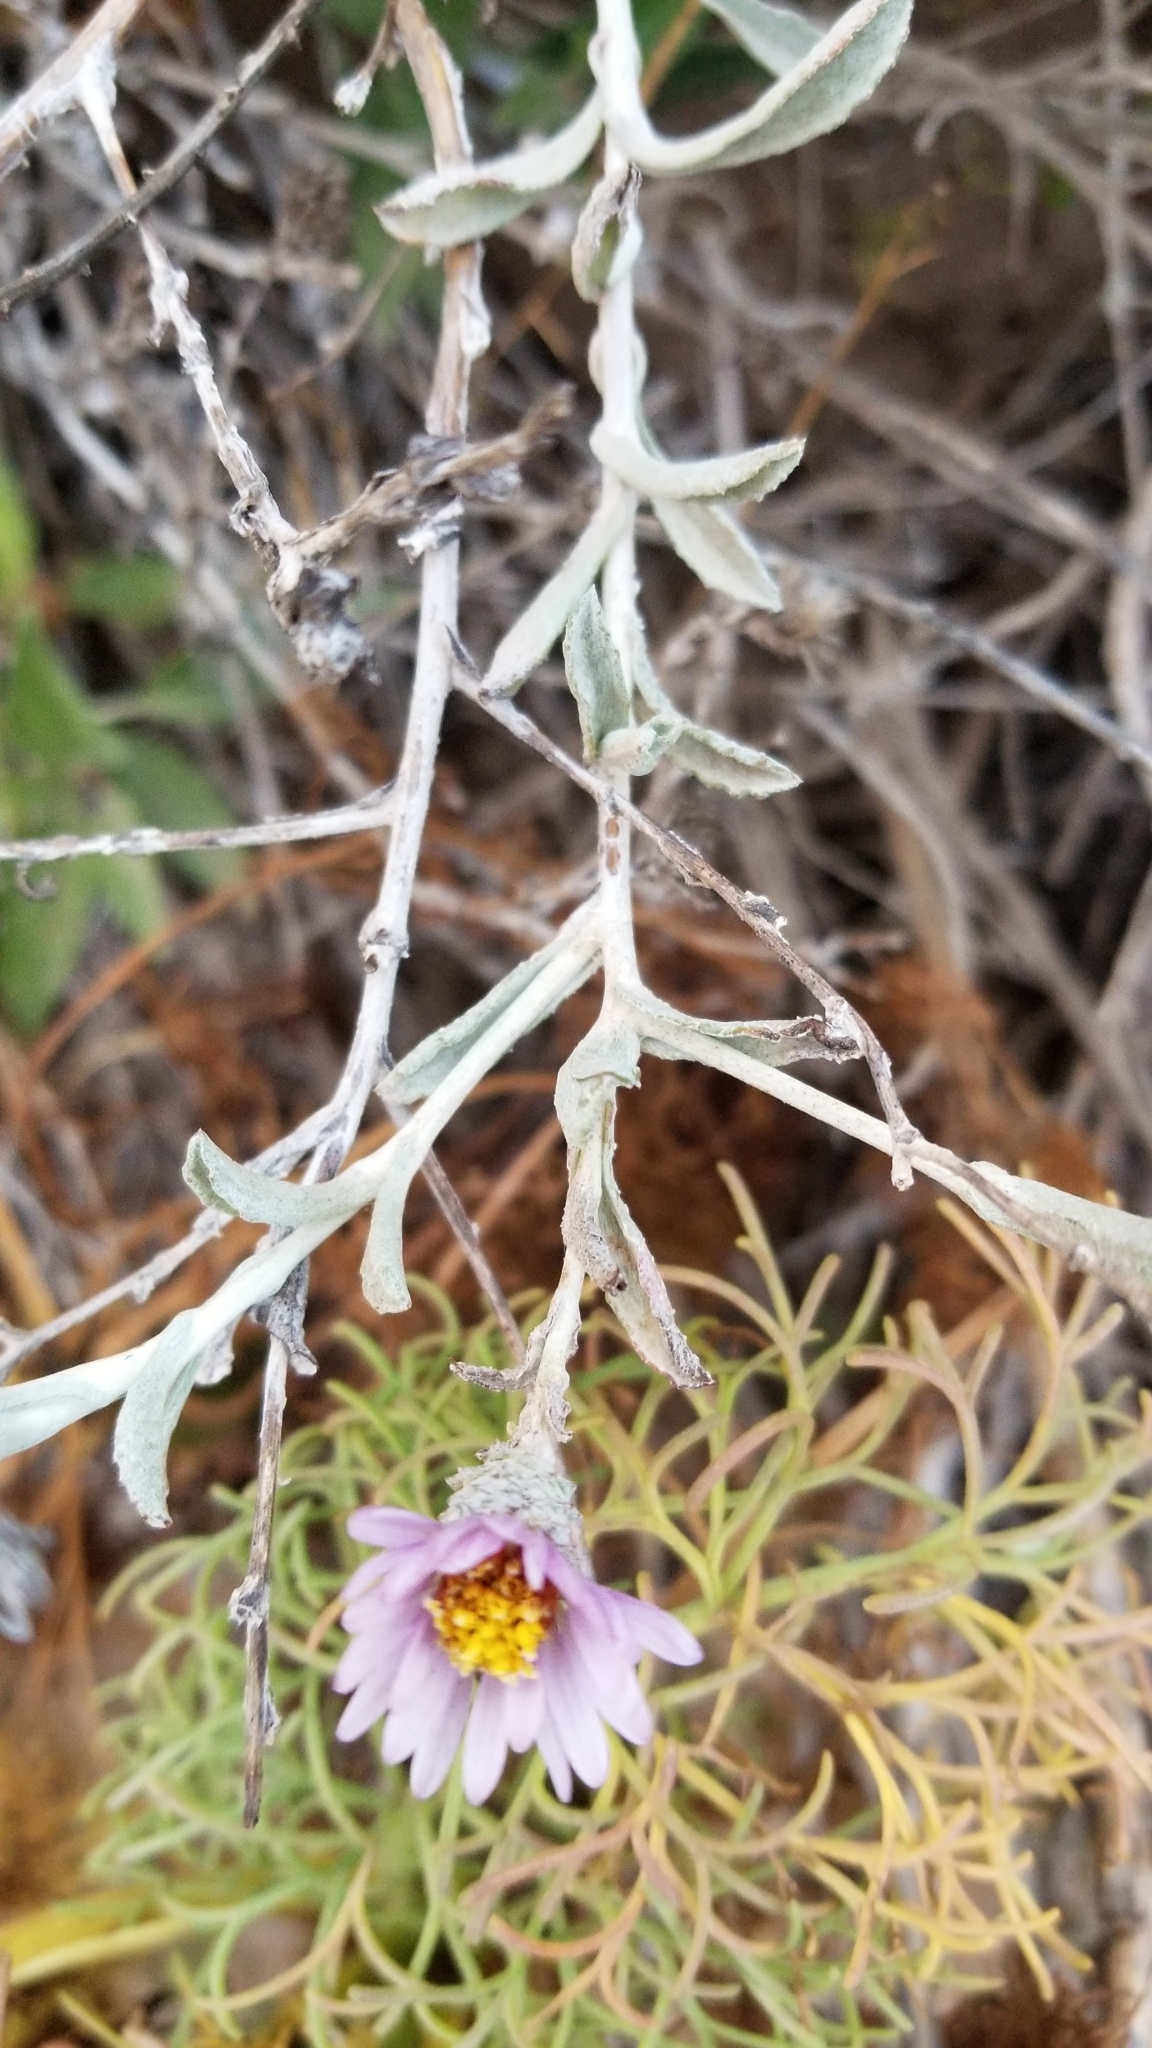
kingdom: Plantae
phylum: Tracheophyta
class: Magnoliopsida
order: Asterales
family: Asteraceae
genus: Corethrogyne
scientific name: Corethrogyne filaginifolia
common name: Sand-aster
